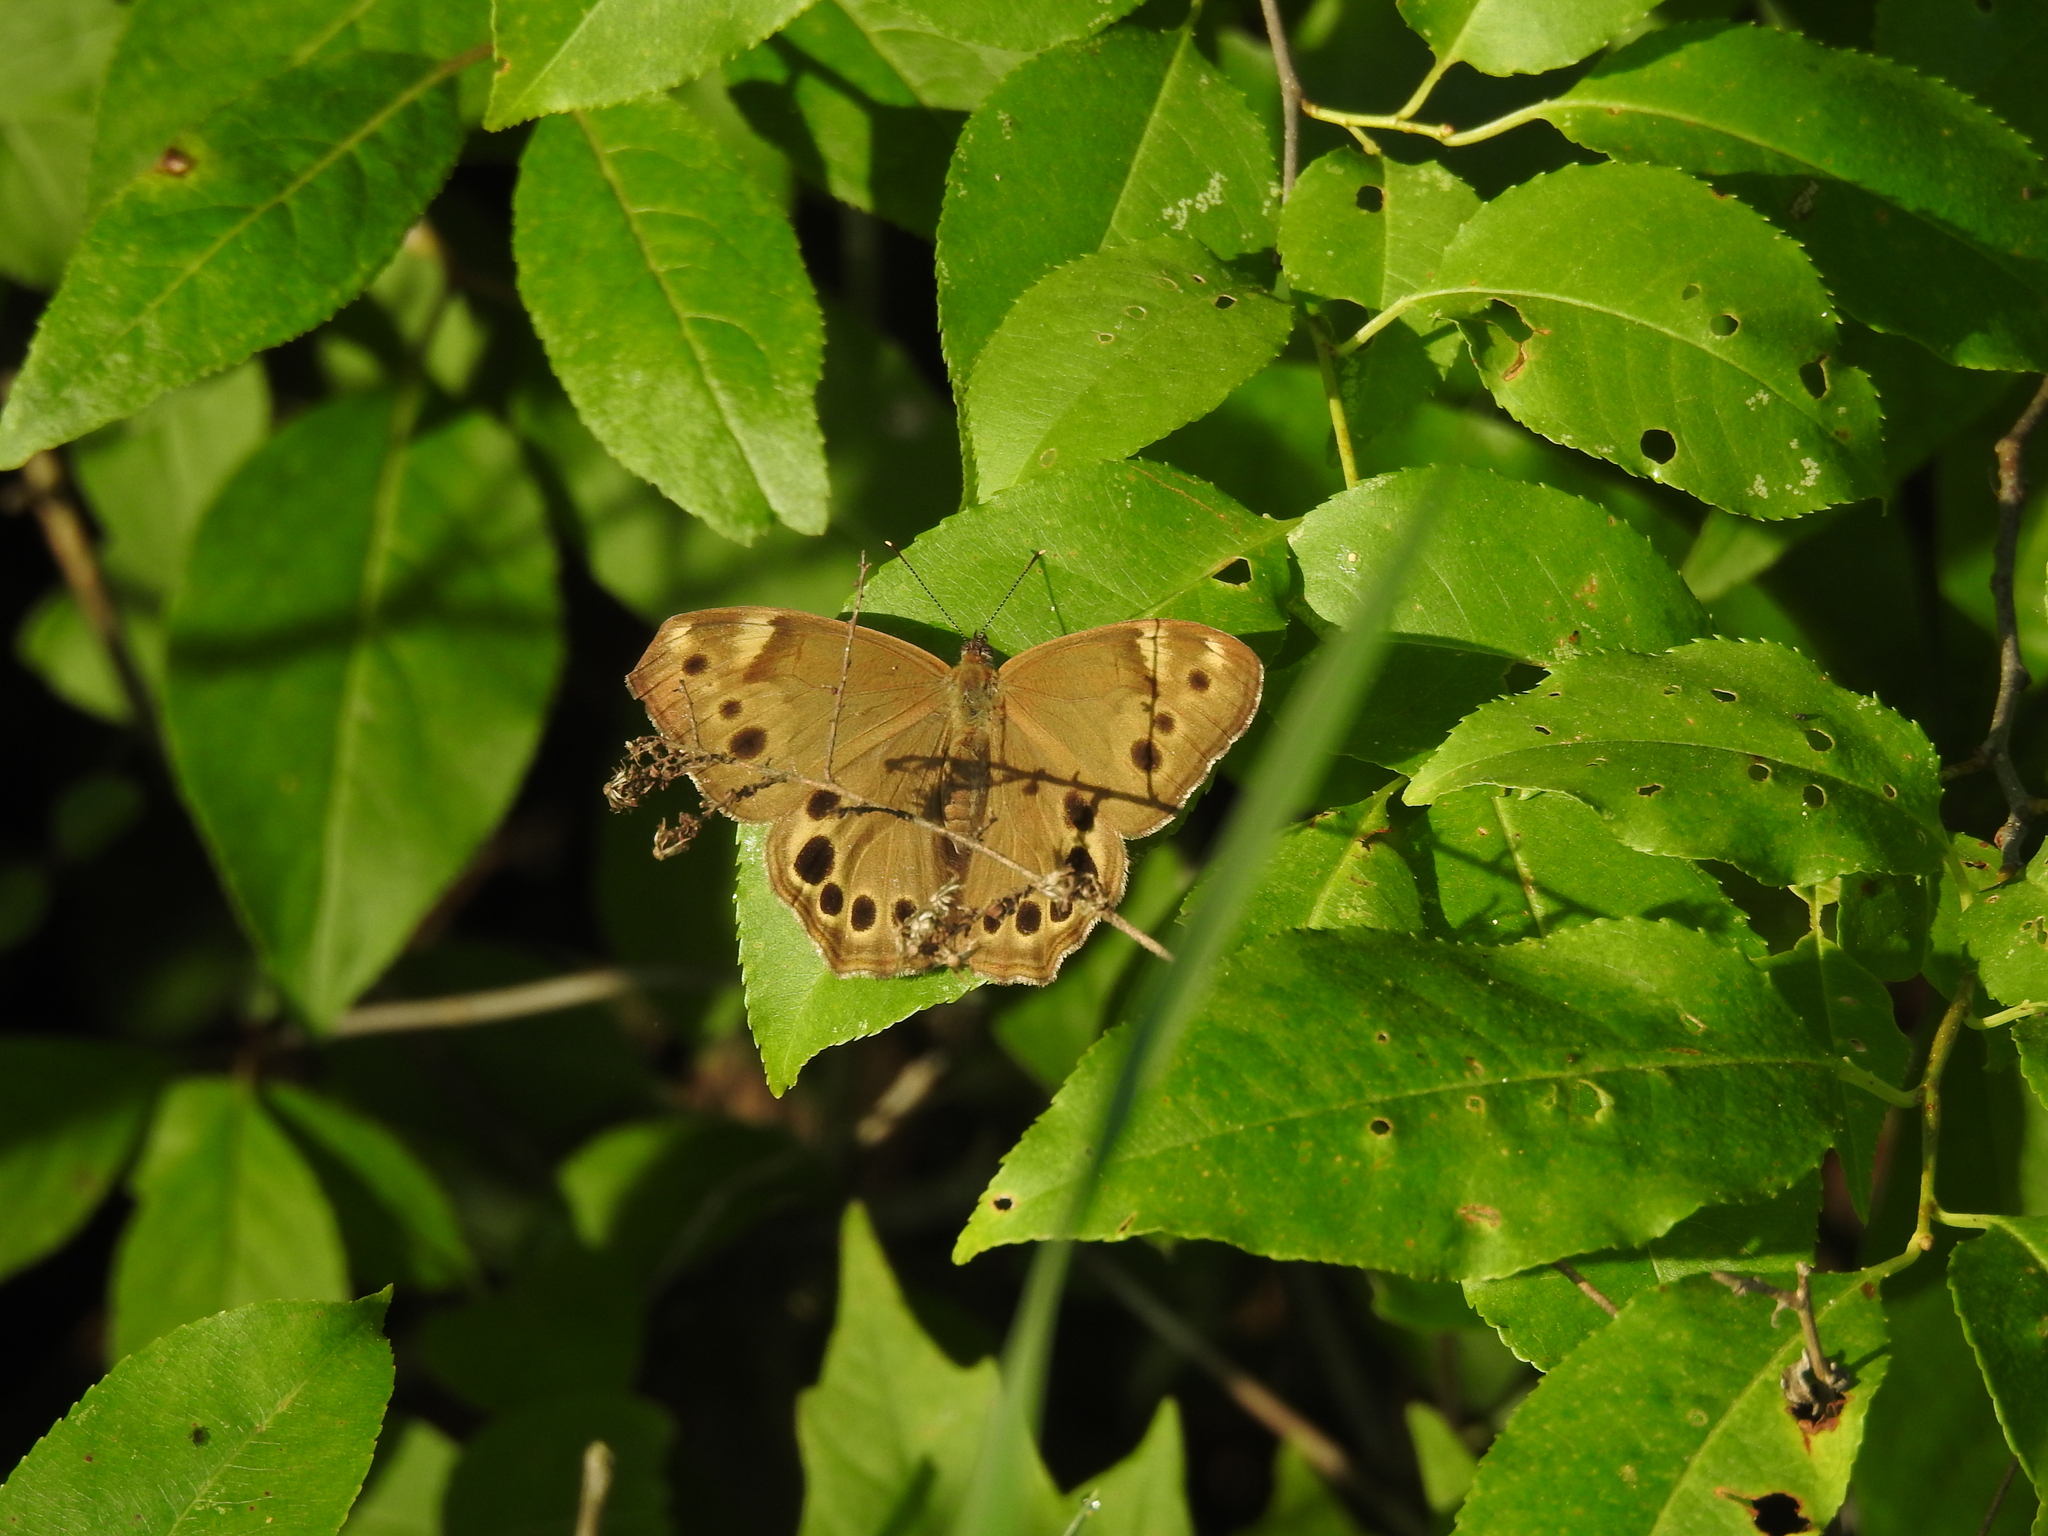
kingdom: Animalia
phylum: Arthropoda
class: Insecta
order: Lepidoptera
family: Nymphalidae
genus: Lethe
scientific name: Lethe anthedon
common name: Northern pearly-eye
